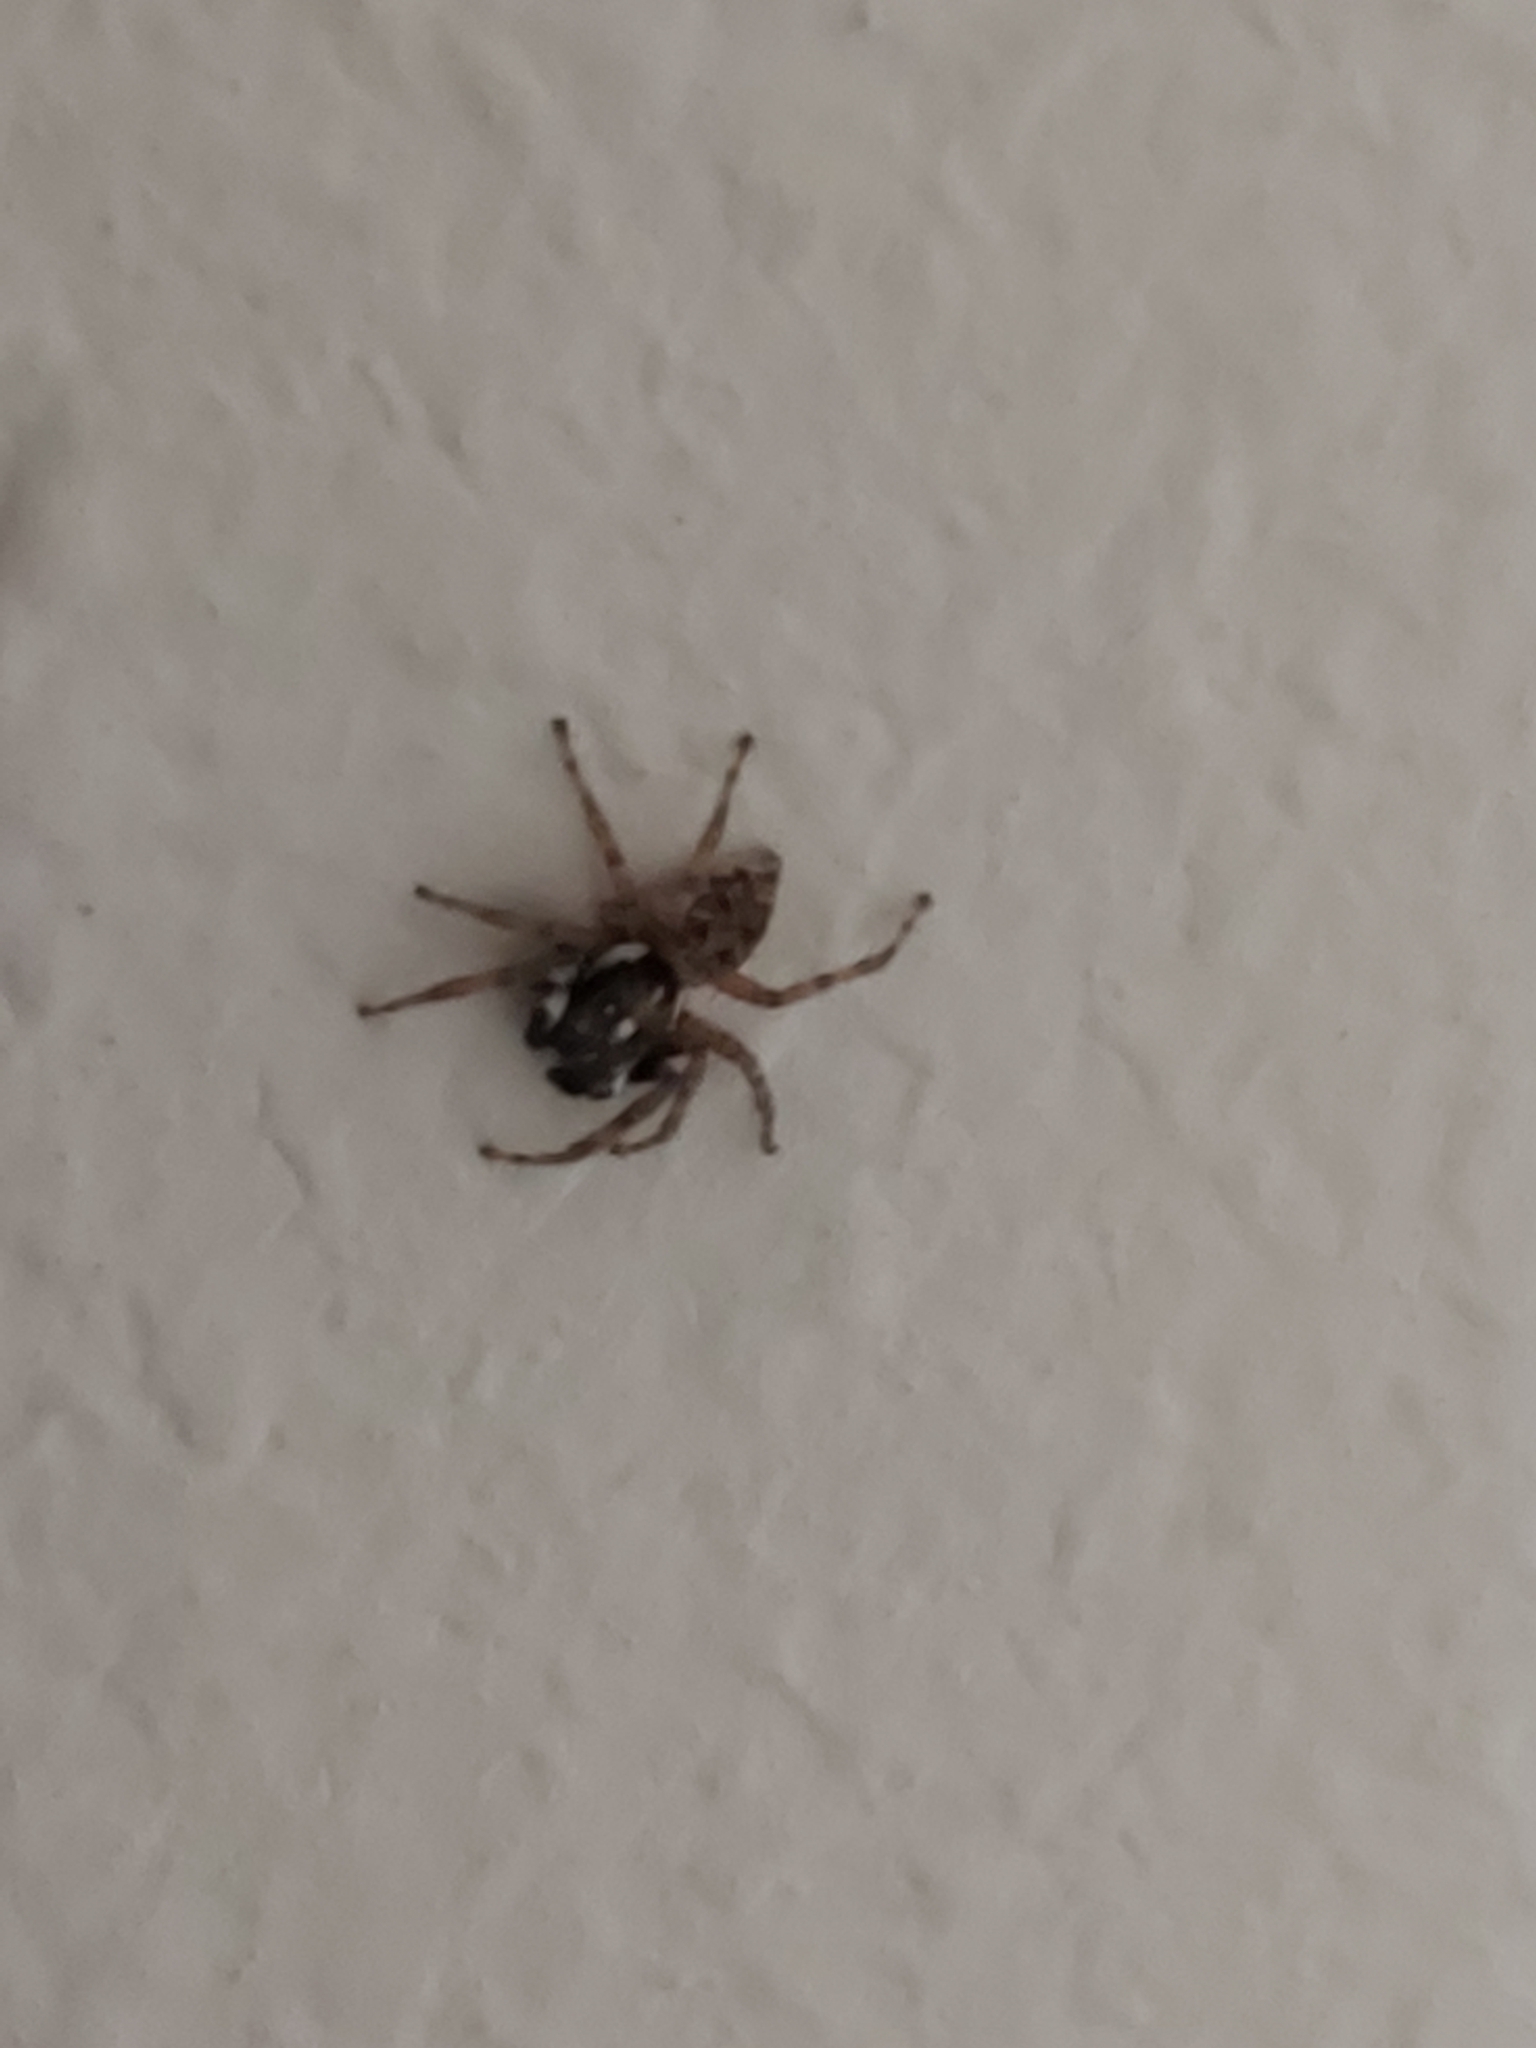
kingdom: Animalia
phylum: Arthropoda
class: Arachnida
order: Araneae
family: Salticidae
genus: Menemerus
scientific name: Menemerus semilimbatus
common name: Jumping spider
